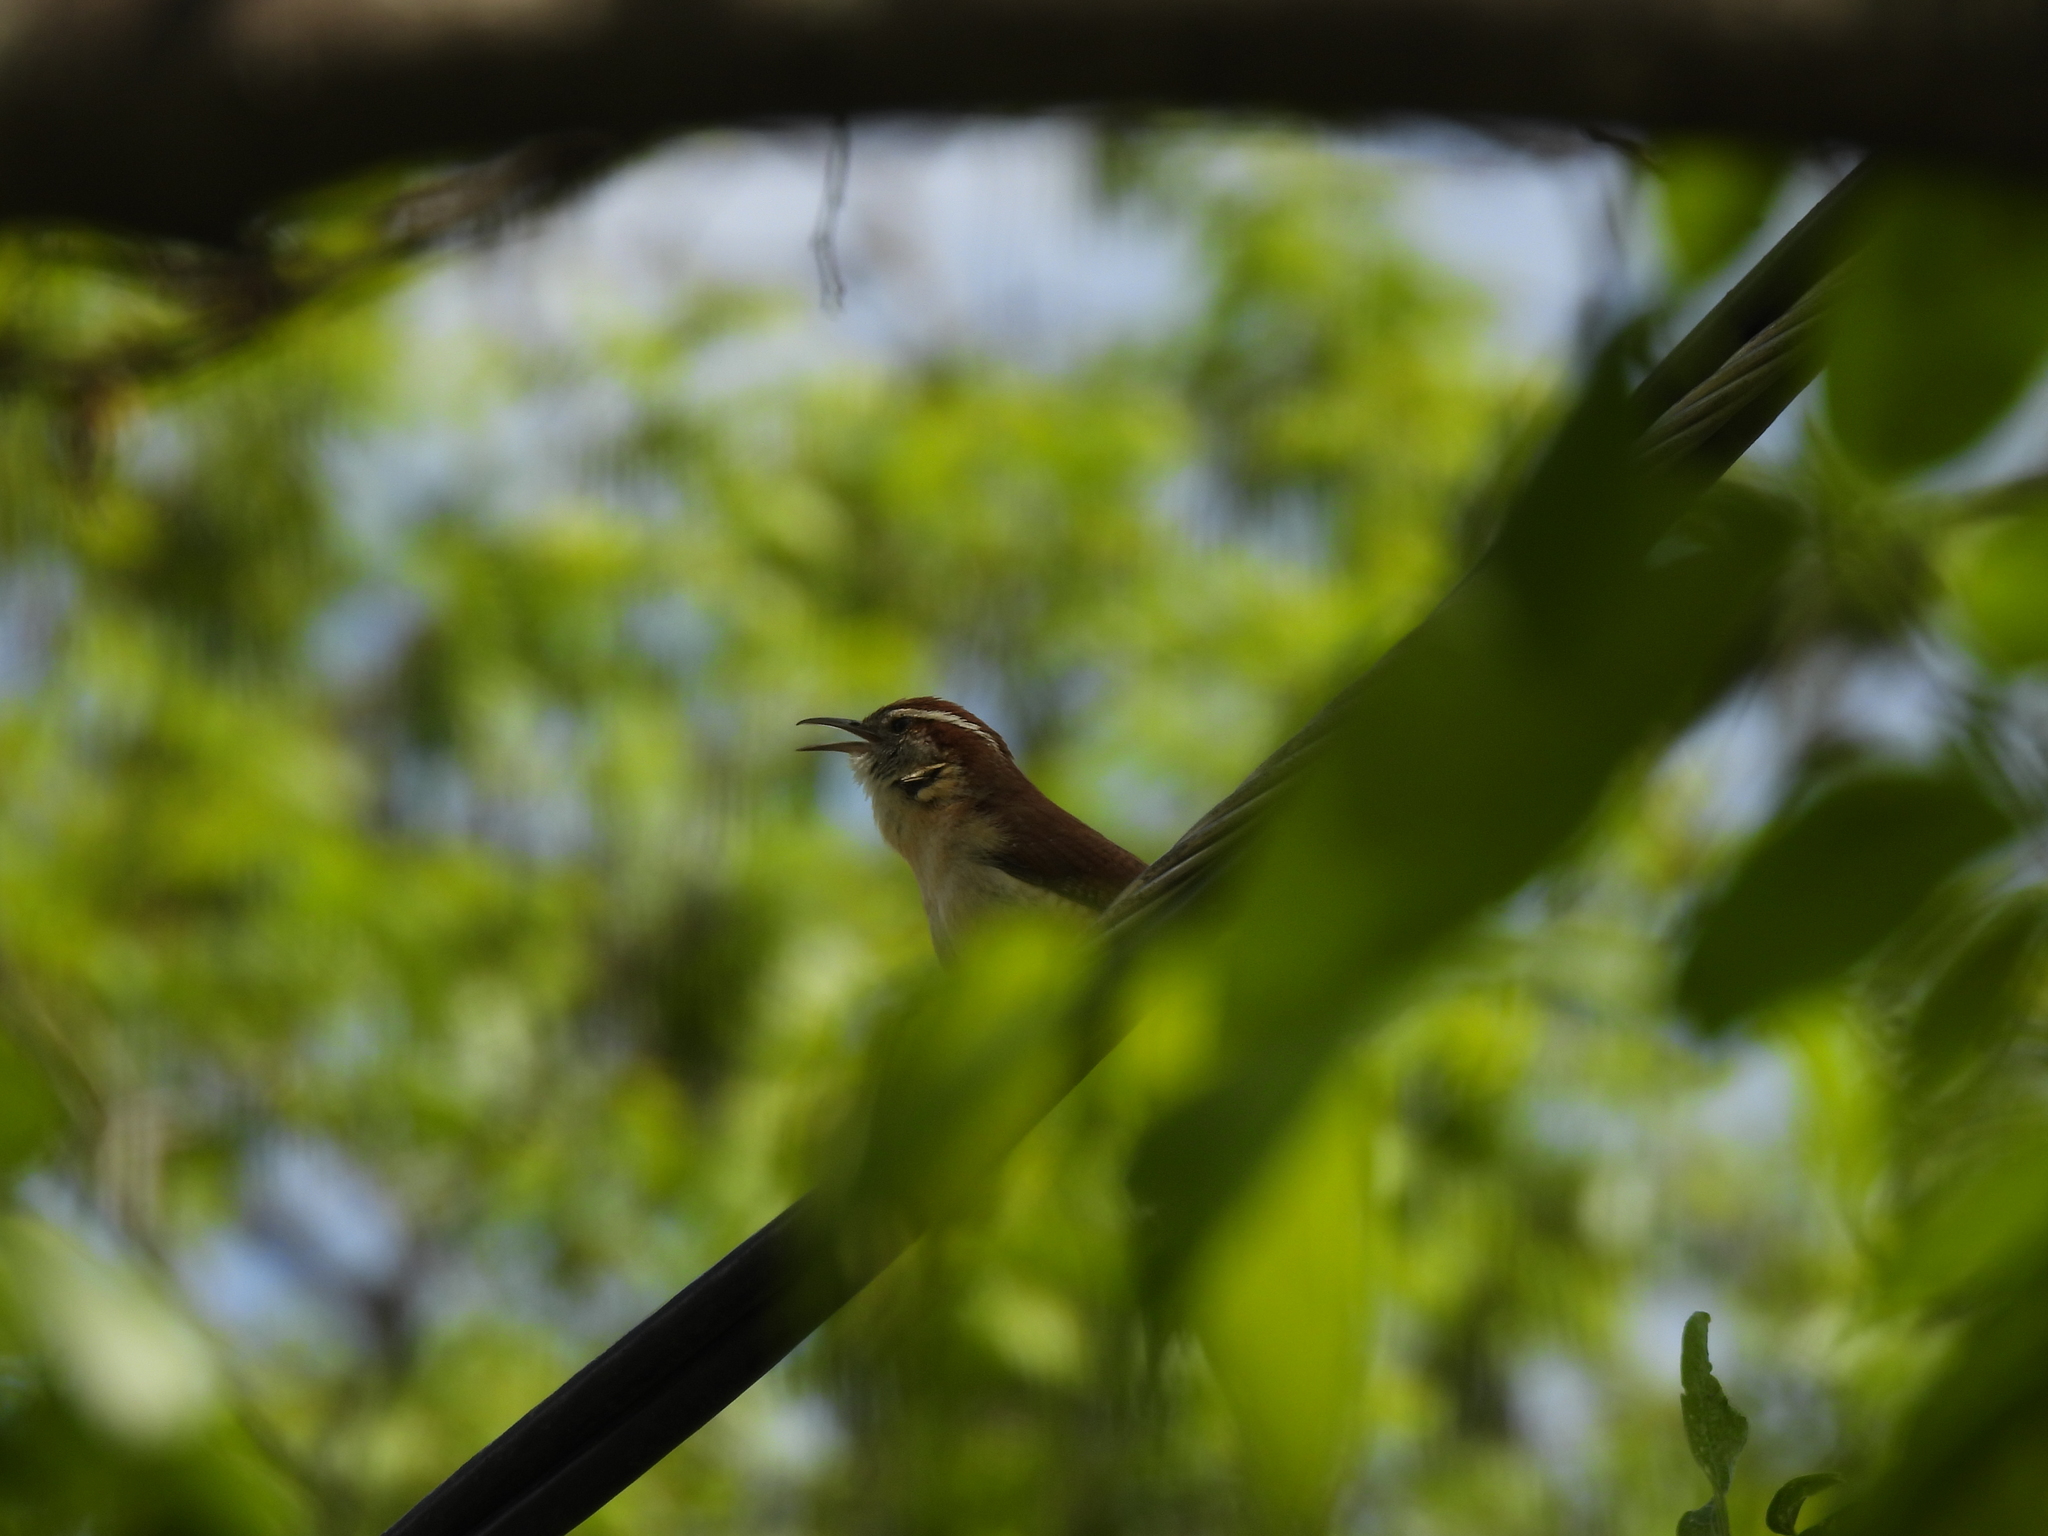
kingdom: Animalia
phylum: Chordata
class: Aves
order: Passeriformes
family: Troglodytidae
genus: Thryothorus
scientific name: Thryothorus ludovicianus
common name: Carolina wren
